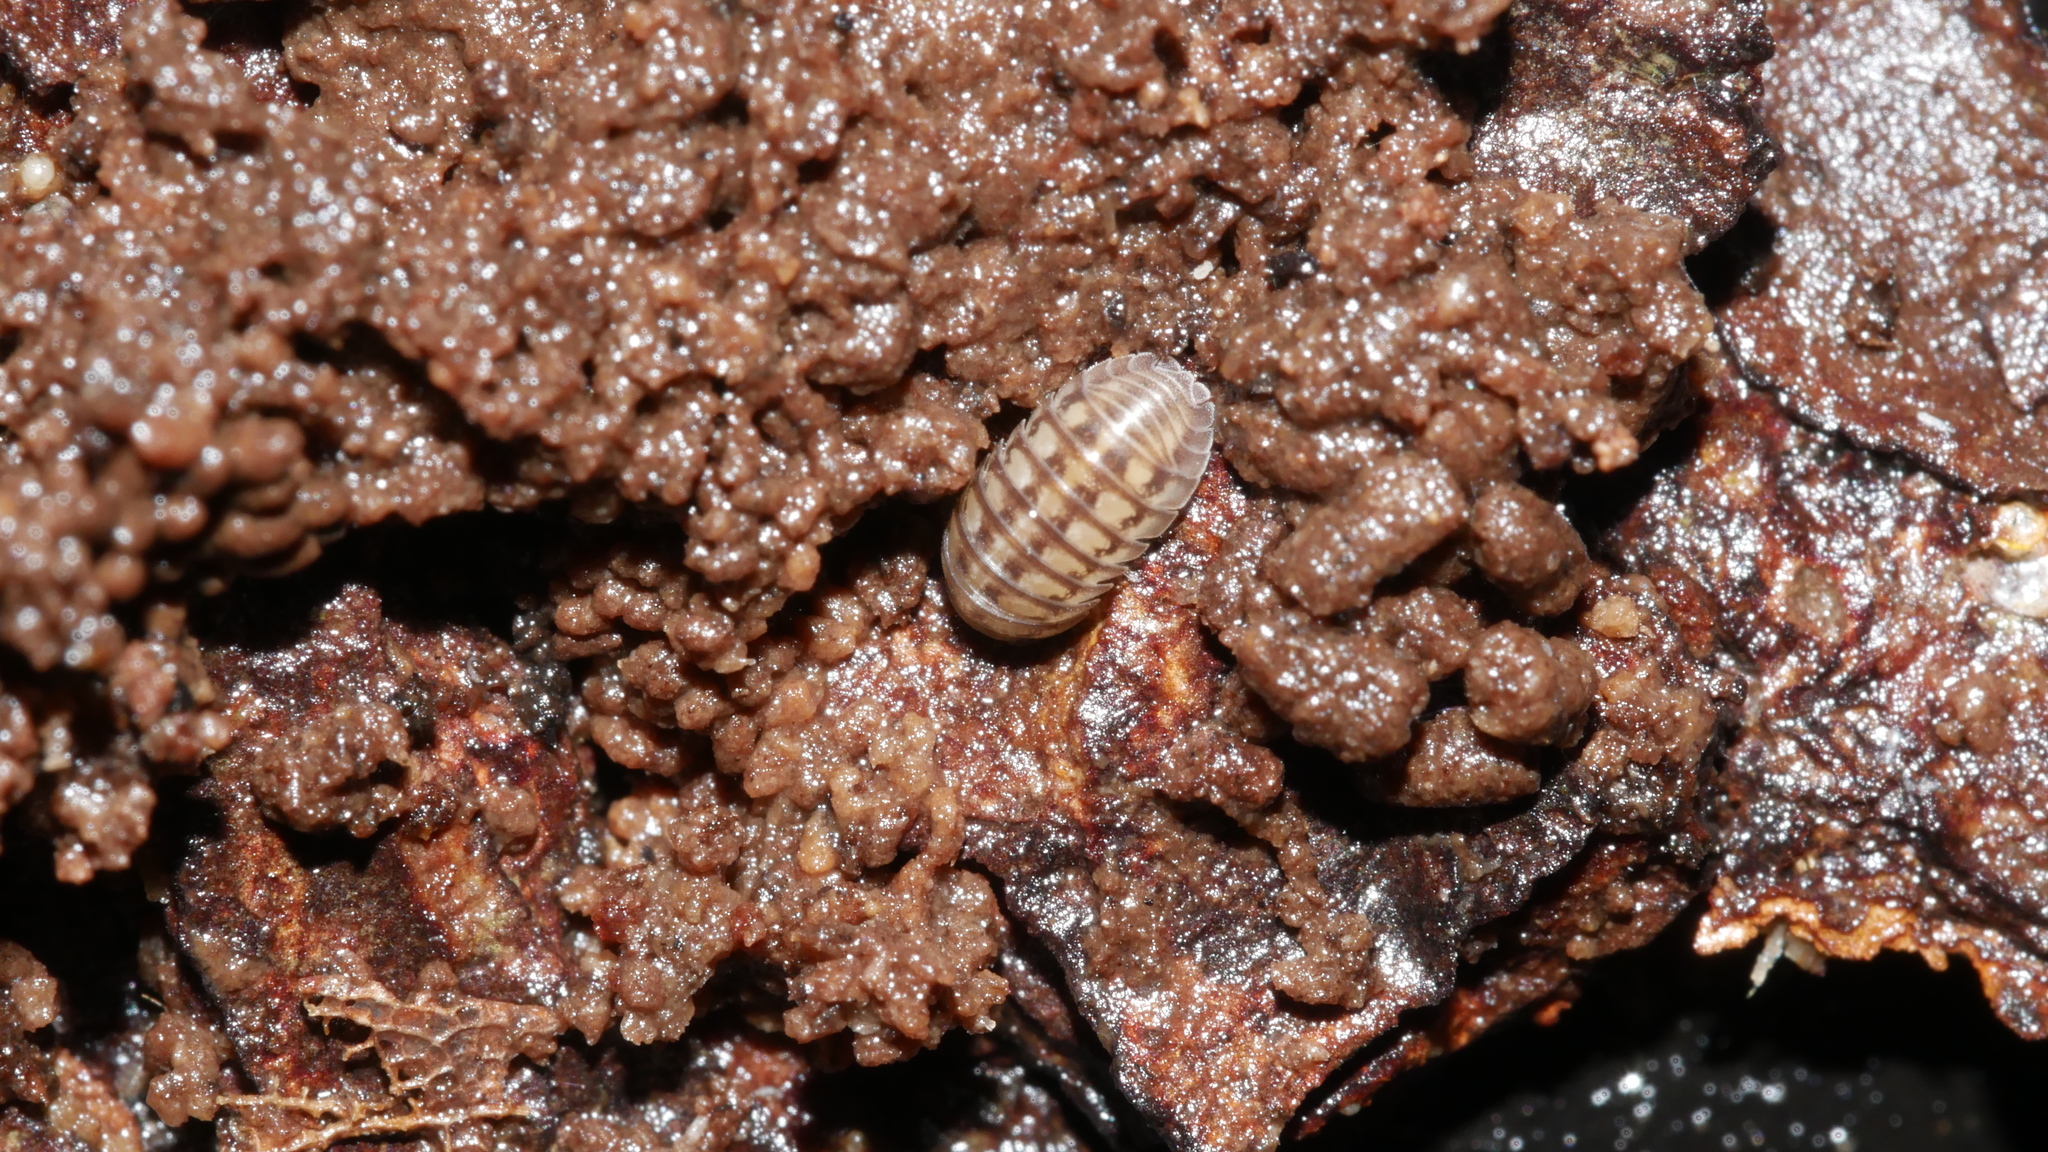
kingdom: Animalia
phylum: Arthropoda
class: Malacostraca
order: Isopoda
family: Armadillidiidae
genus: Armadillidium
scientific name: Armadillidium nasatum
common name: Isopod
